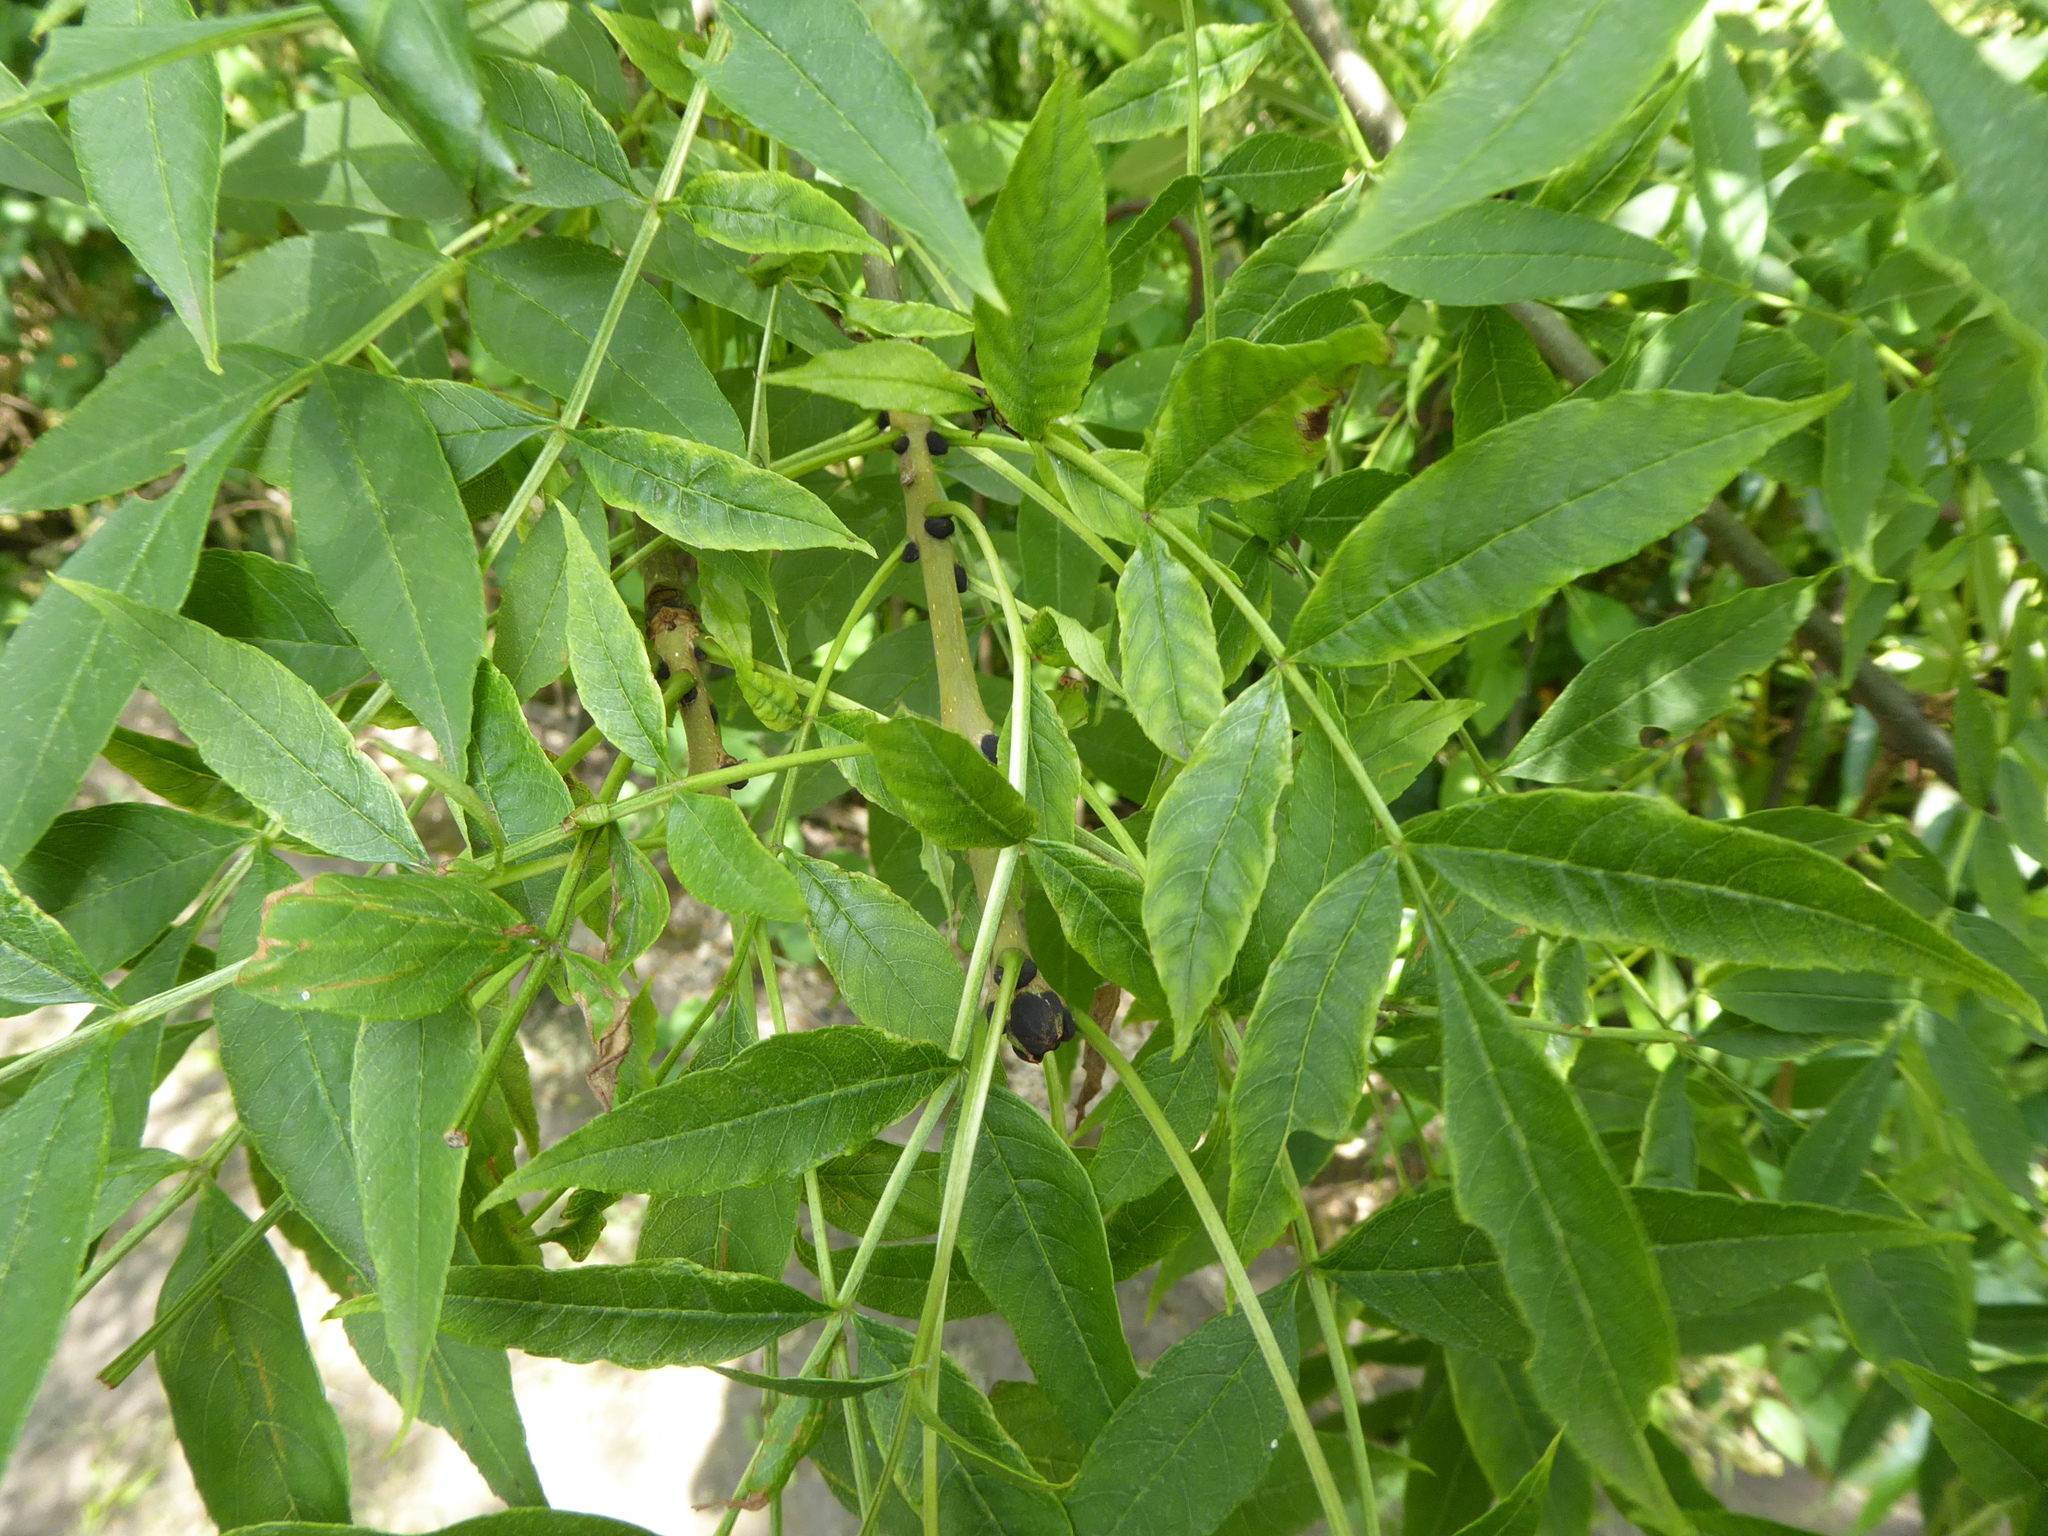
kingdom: Plantae
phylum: Tracheophyta
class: Magnoliopsida
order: Lamiales
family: Oleaceae
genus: Fraxinus
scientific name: Fraxinus excelsior
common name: European ash
